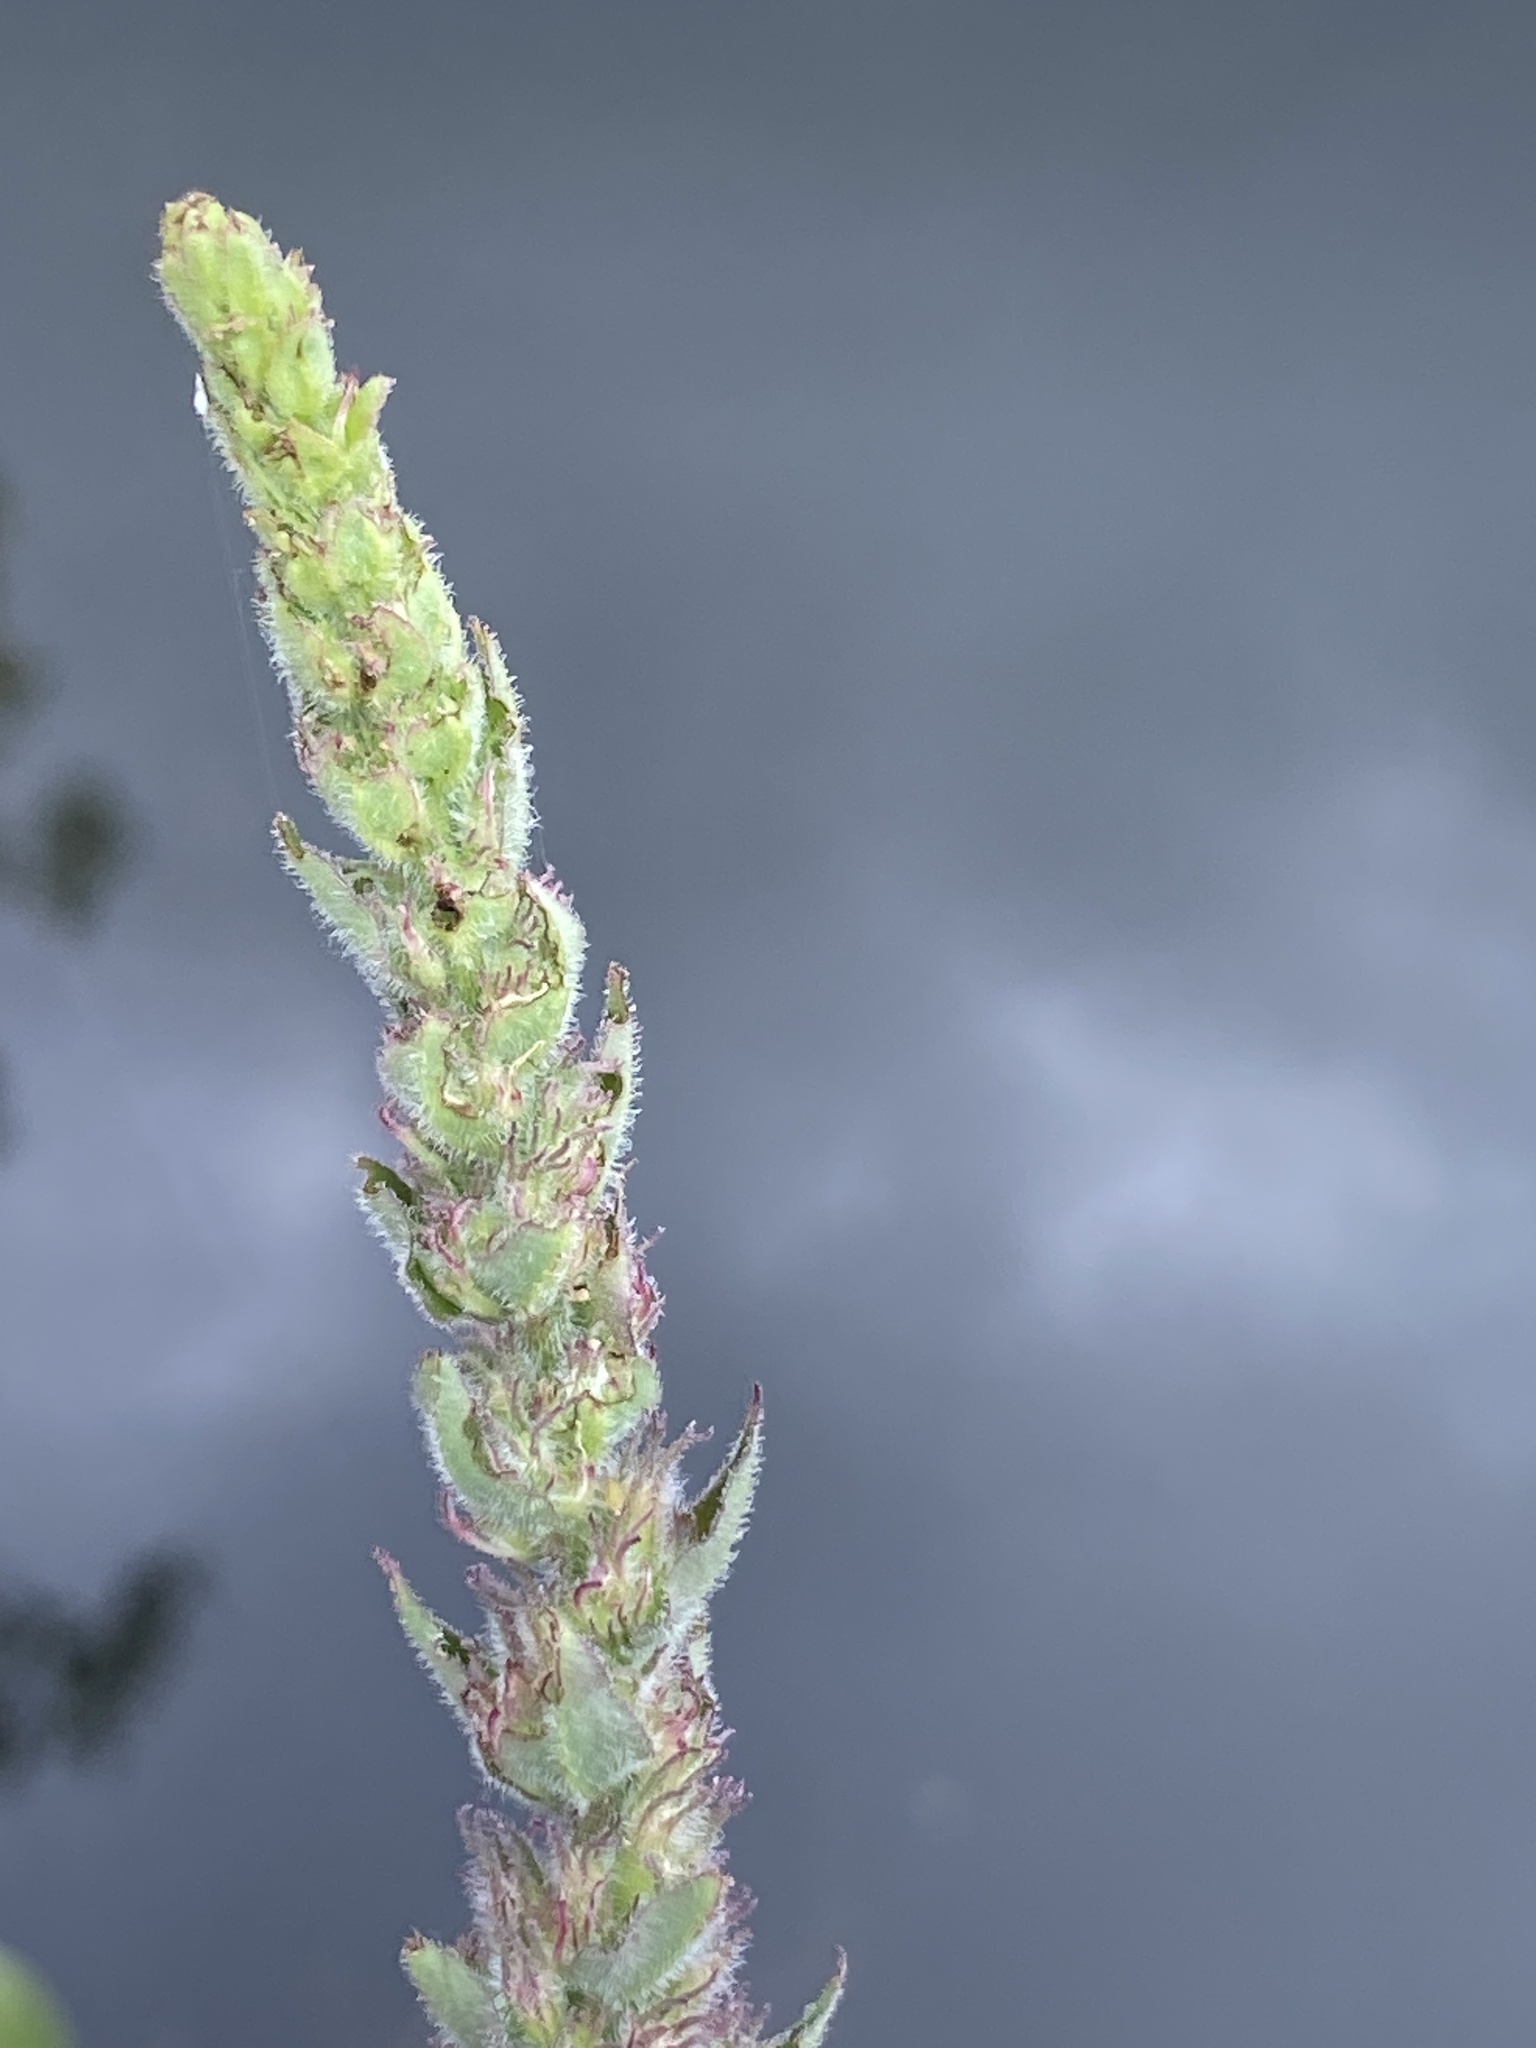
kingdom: Plantae
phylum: Tracheophyta
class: Magnoliopsida
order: Myrtales
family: Lythraceae
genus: Lythrum
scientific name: Lythrum salicaria
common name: Purple loosestrife
